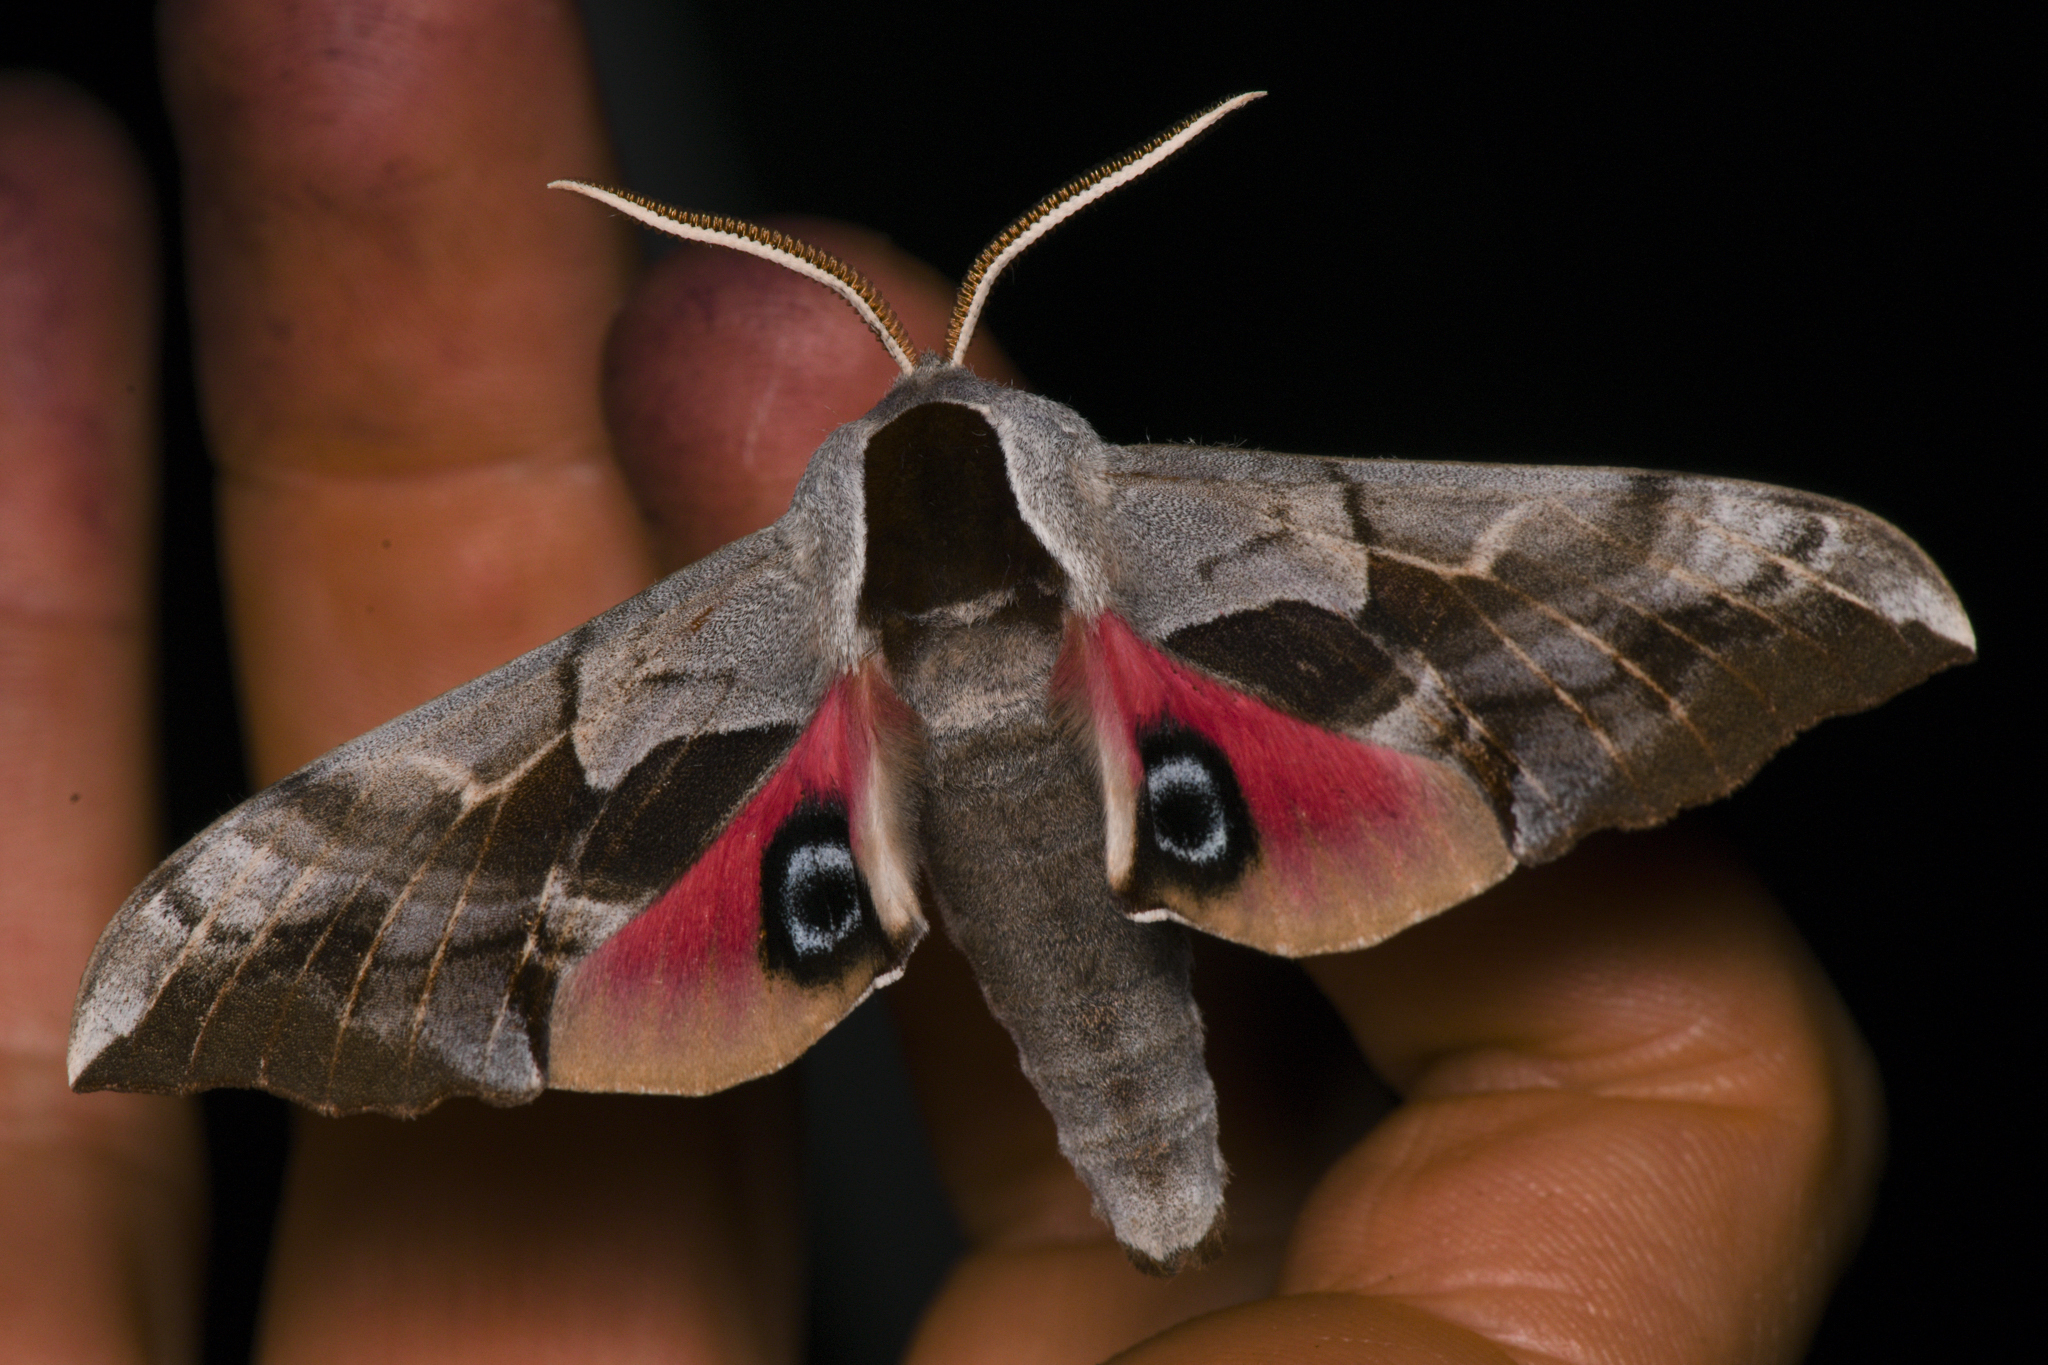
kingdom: Animalia
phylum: Arthropoda
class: Insecta
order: Lepidoptera
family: Sphingidae
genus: Smerinthus
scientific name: Smerinthus cerisyi
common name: Cerisy's sphinx moth
